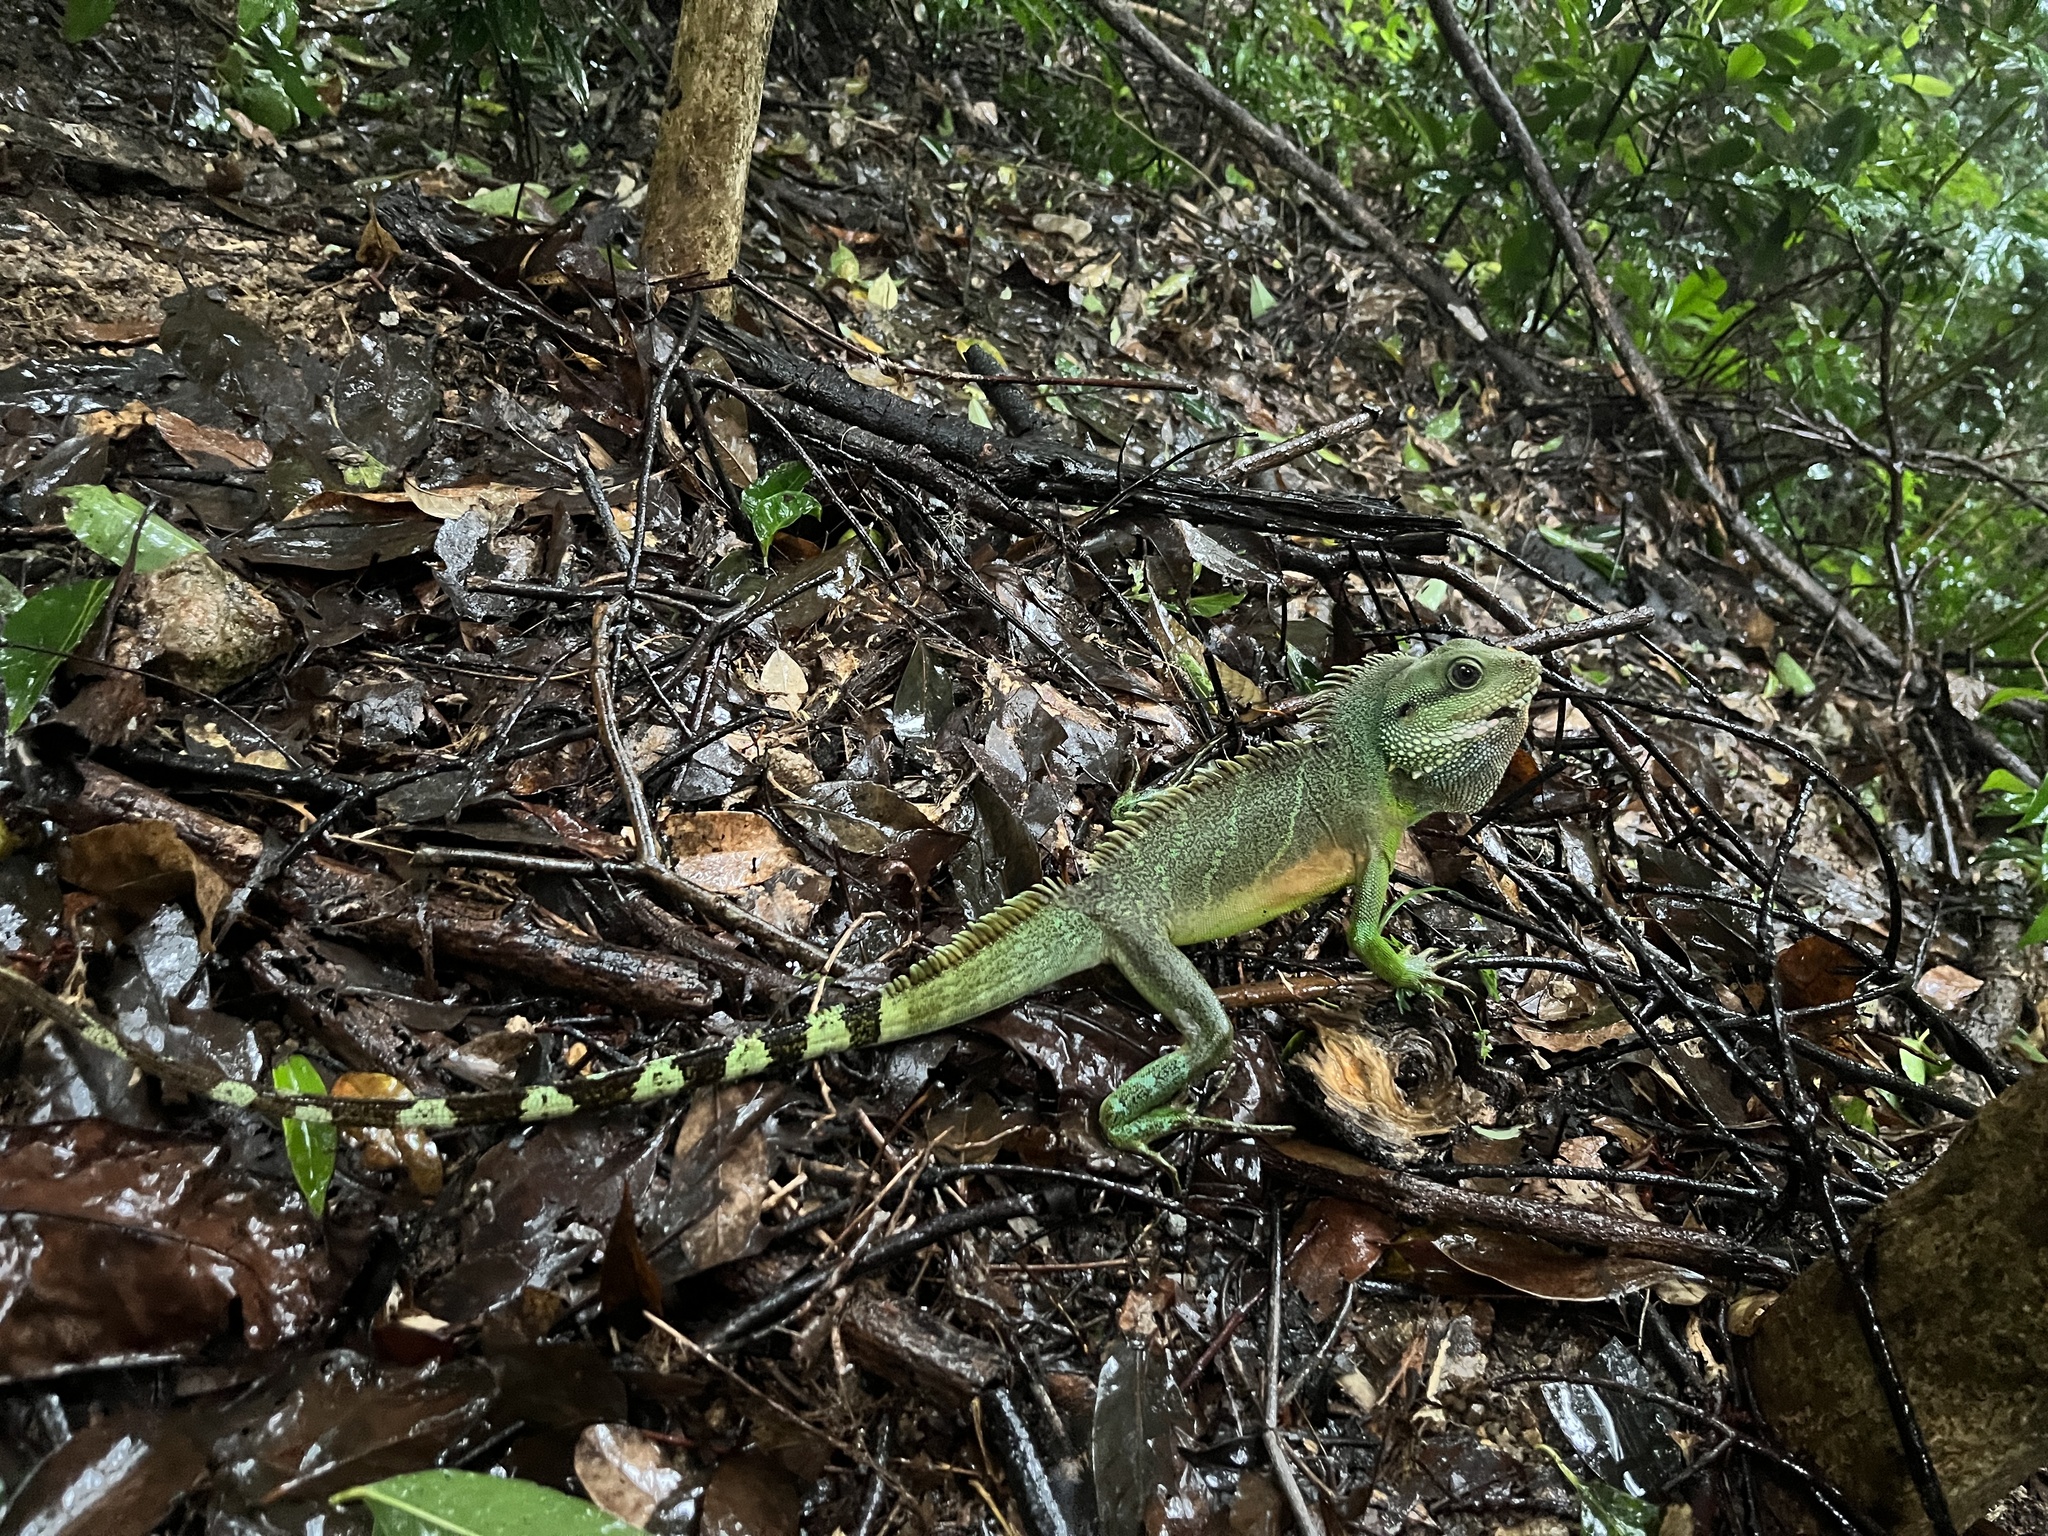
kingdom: Animalia
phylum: Chordata
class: Squamata
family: Agamidae
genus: Physignathus
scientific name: Physignathus cocincinus
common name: Asian water dragon
